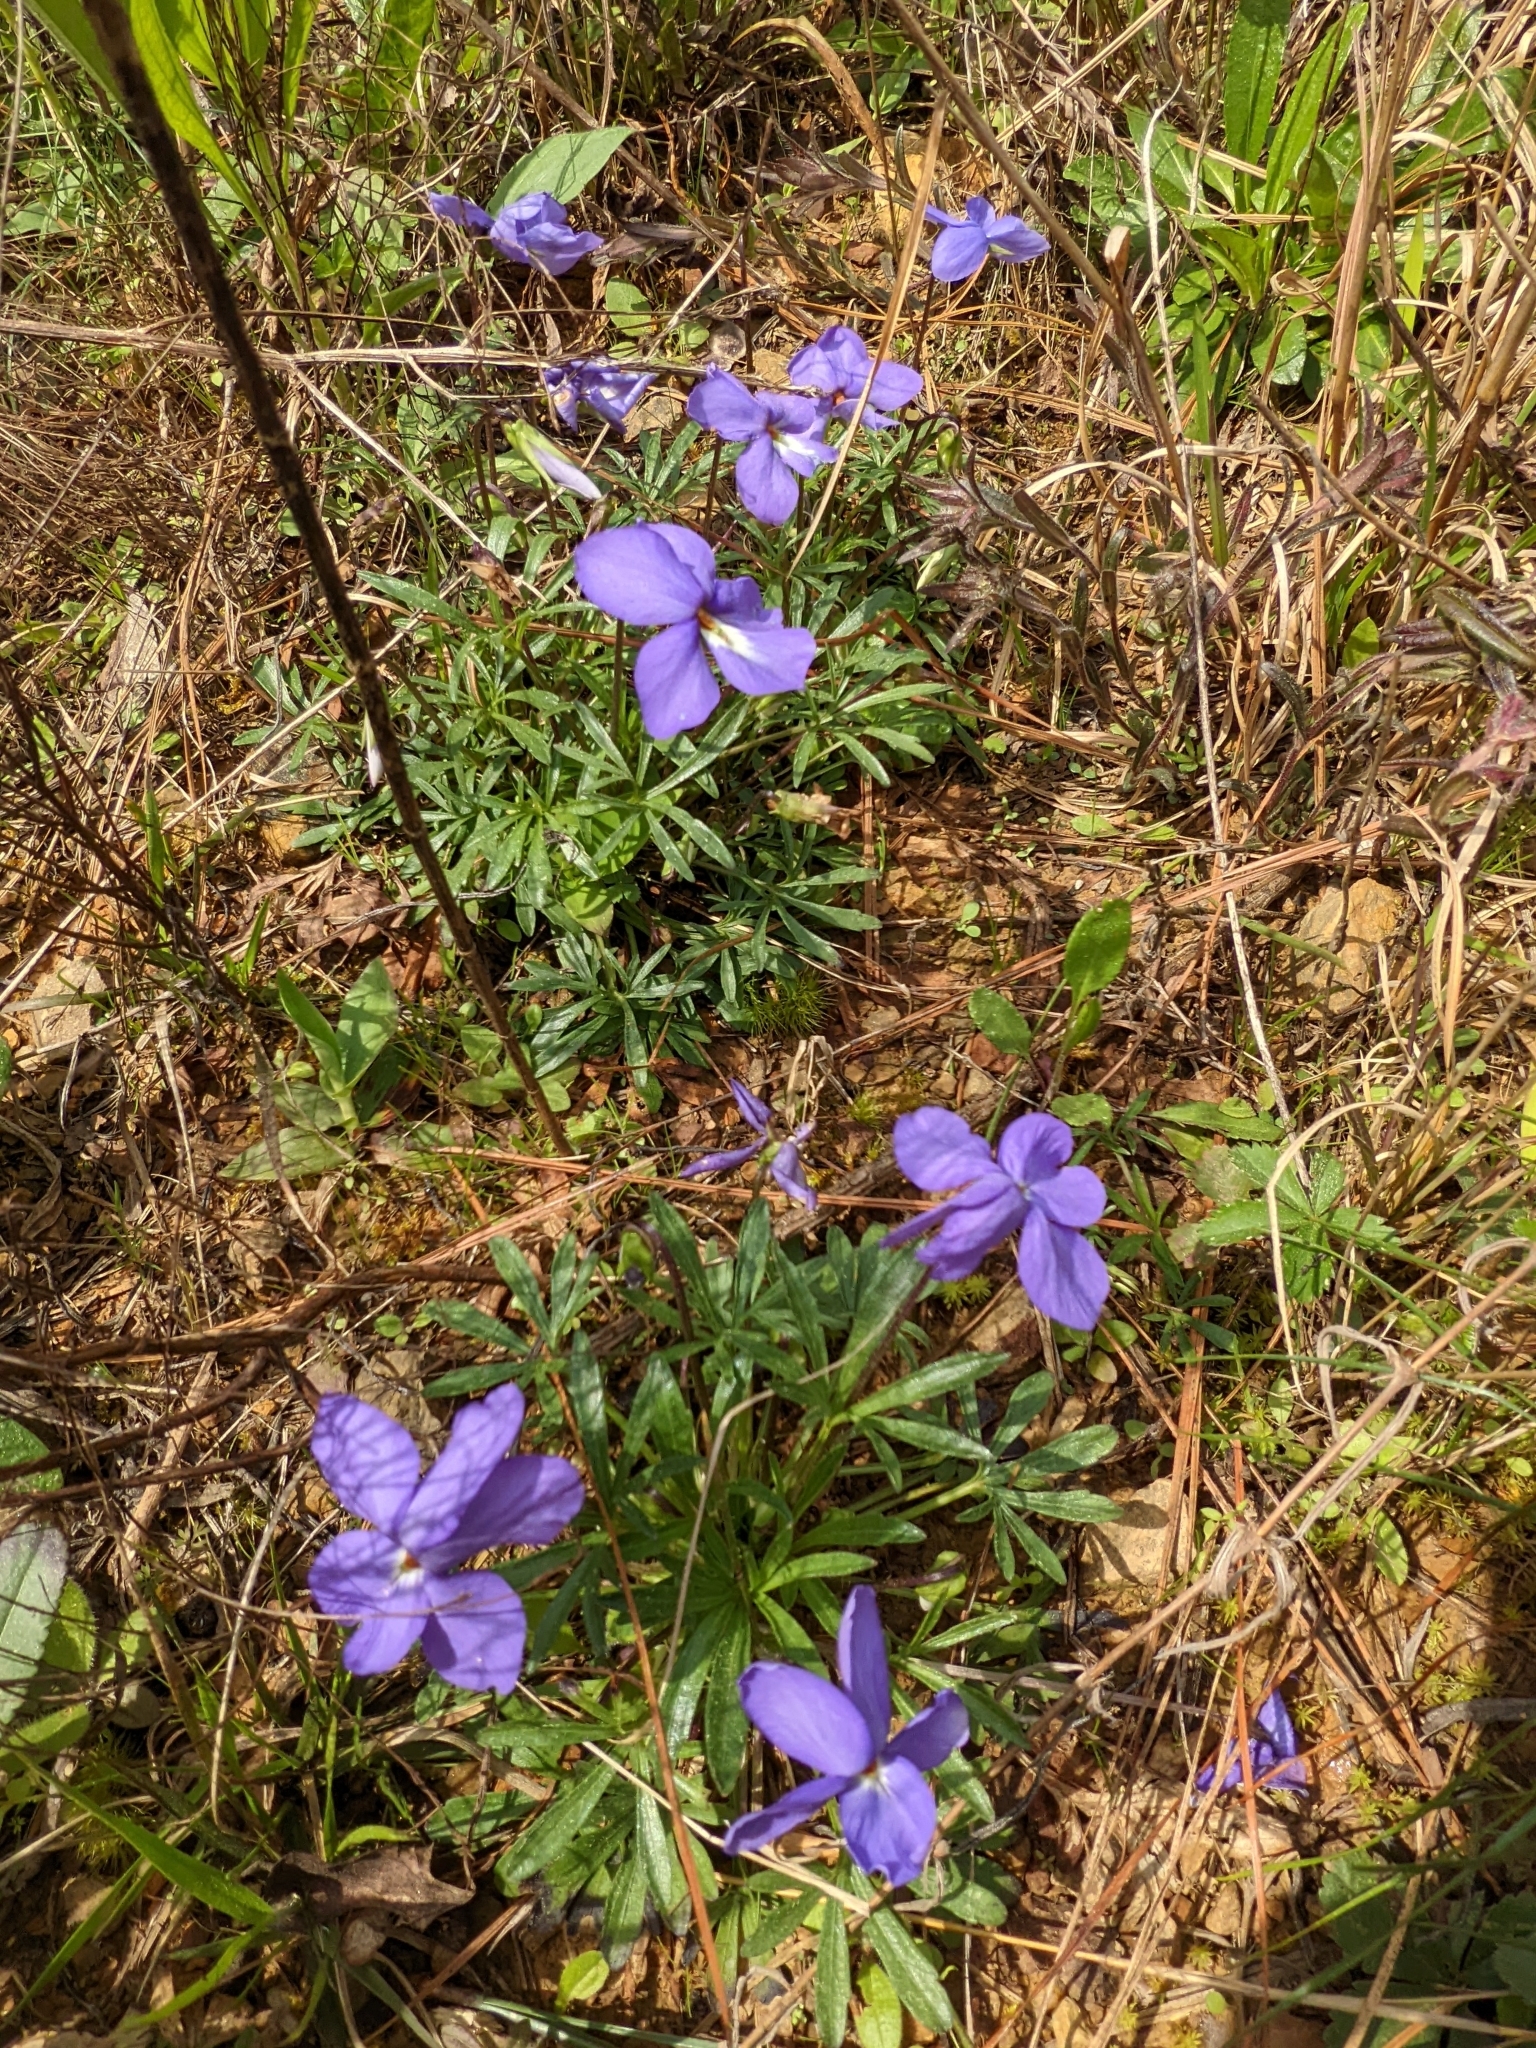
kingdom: Plantae
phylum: Tracheophyta
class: Magnoliopsida
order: Malpighiales
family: Violaceae
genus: Viola
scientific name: Viola pedata
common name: Pansy violet
